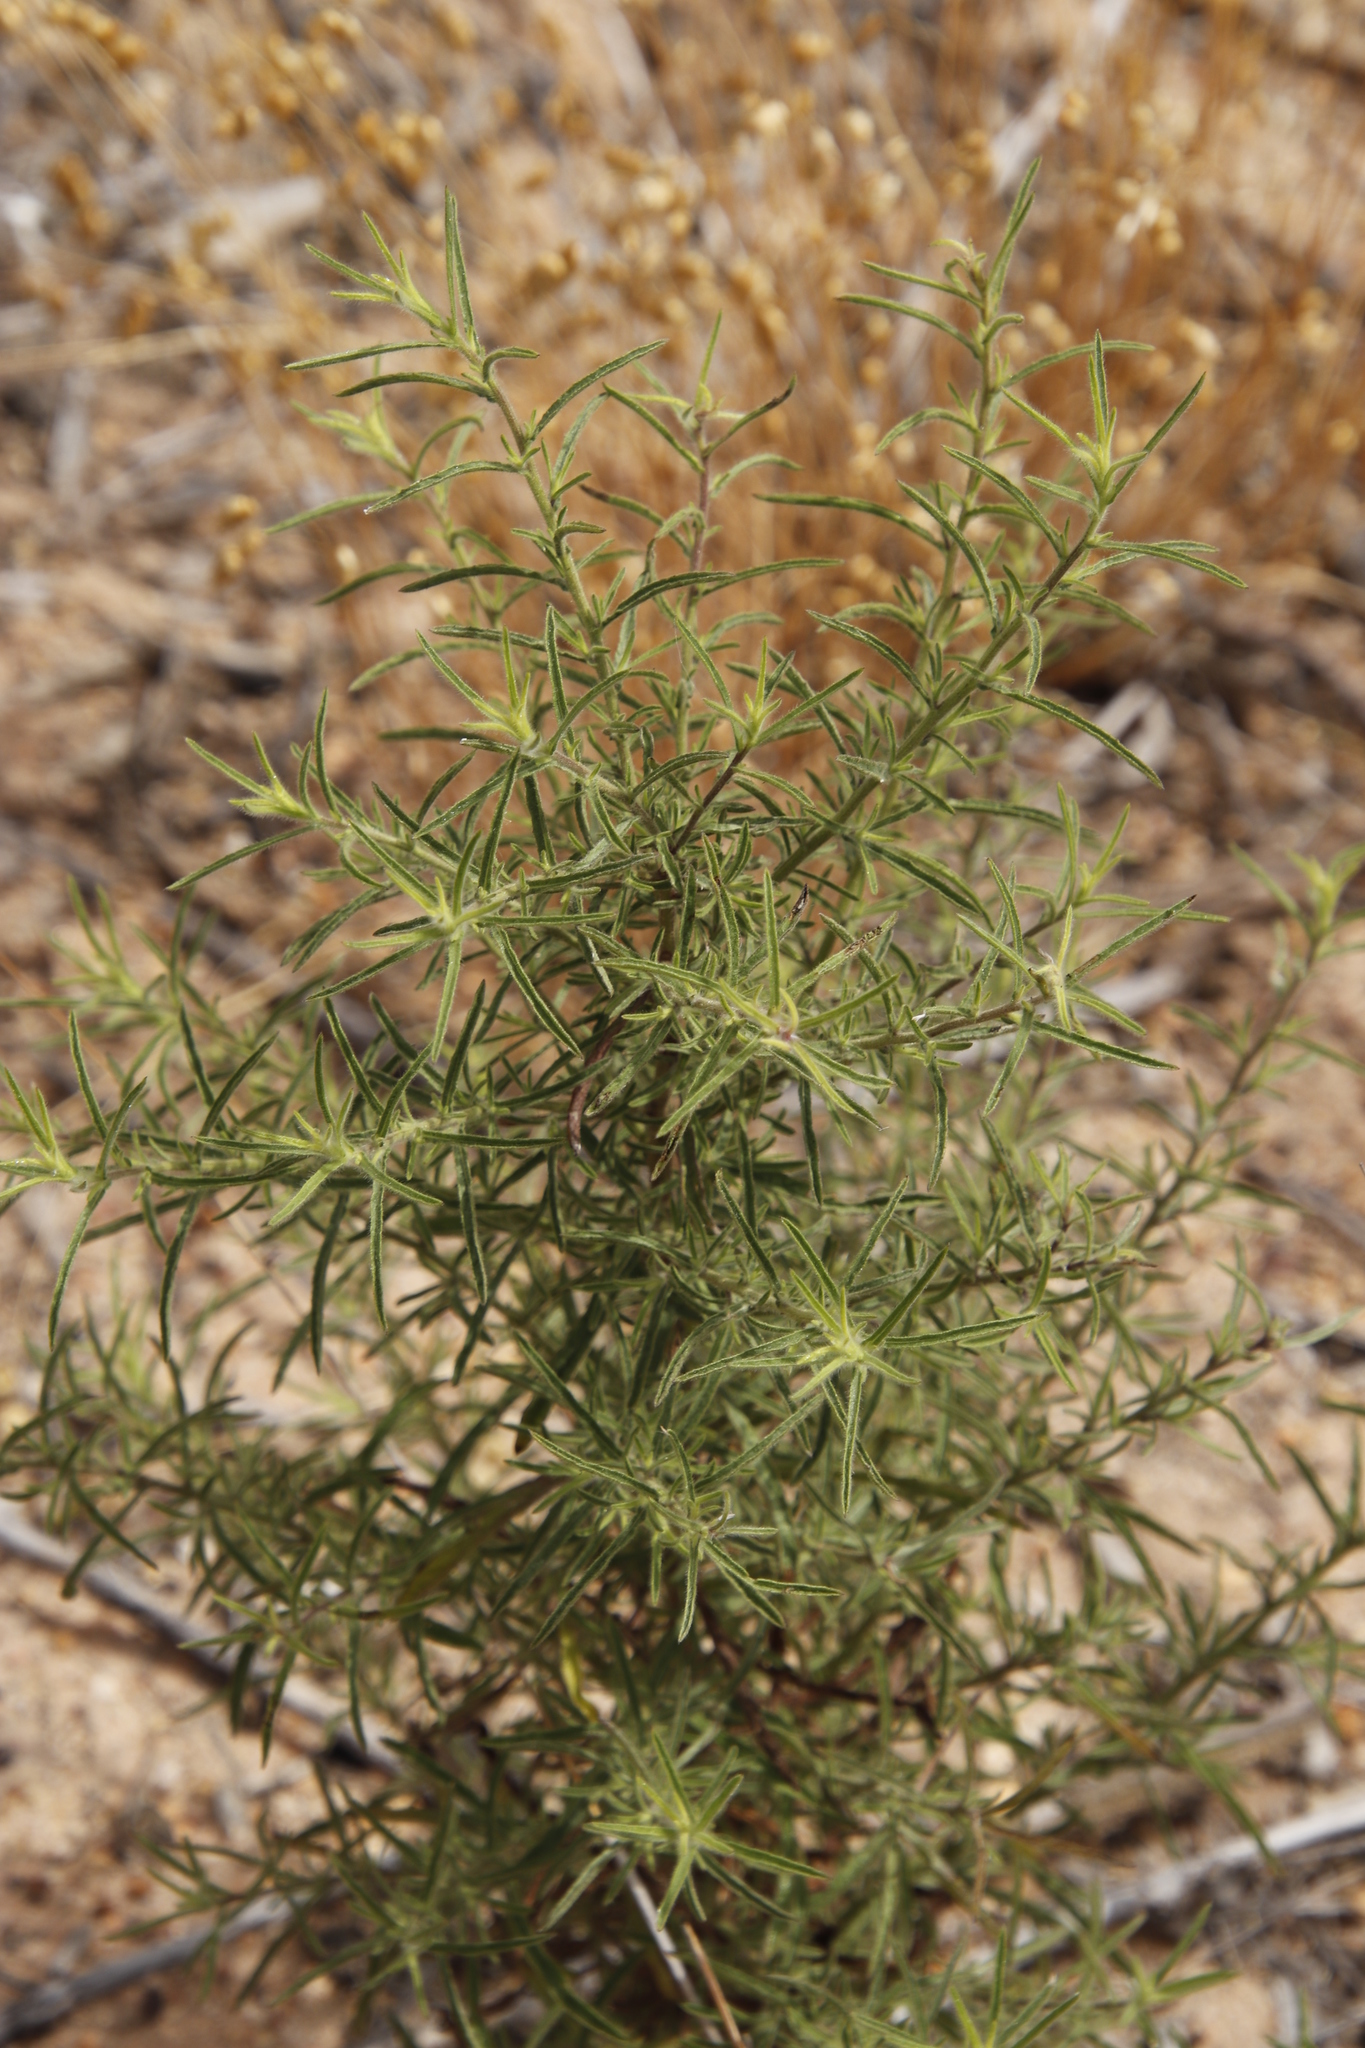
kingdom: Plantae
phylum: Tracheophyta
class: Magnoliopsida
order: Asterales
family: Asteraceae
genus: Dittrichia
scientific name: Dittrichia graveolens
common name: Stinking fleabane
